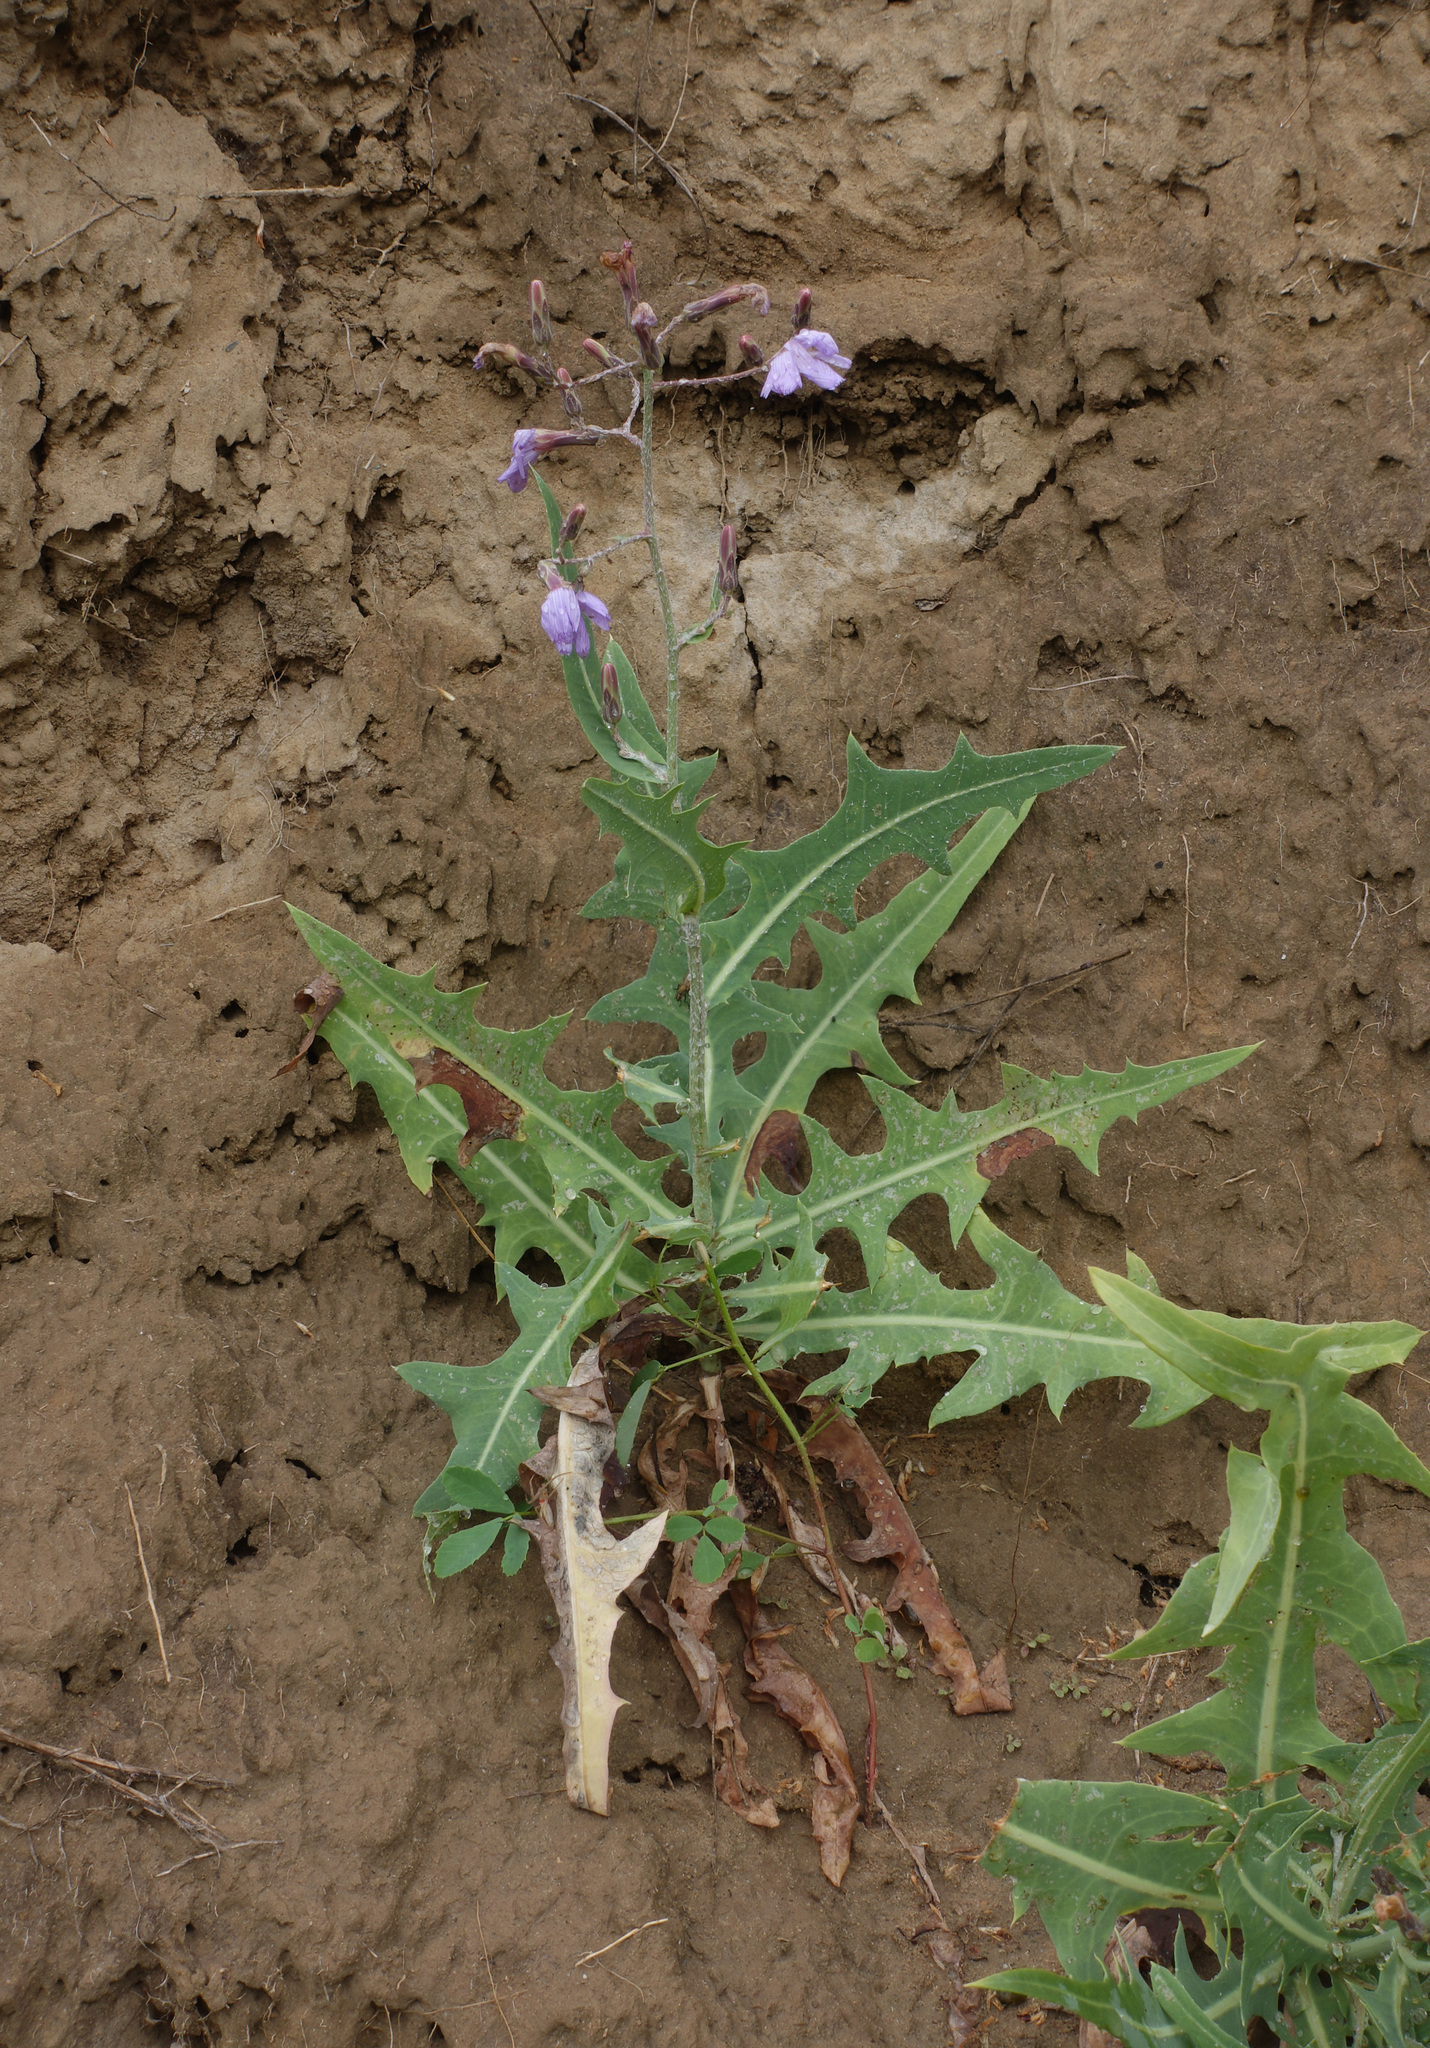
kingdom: Plantae
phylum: Tracheophyta
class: Magnoliopsida
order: Asterales
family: Asteraceae
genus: Lactuca
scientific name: Lactuca tatarica
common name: Blue lettuce
